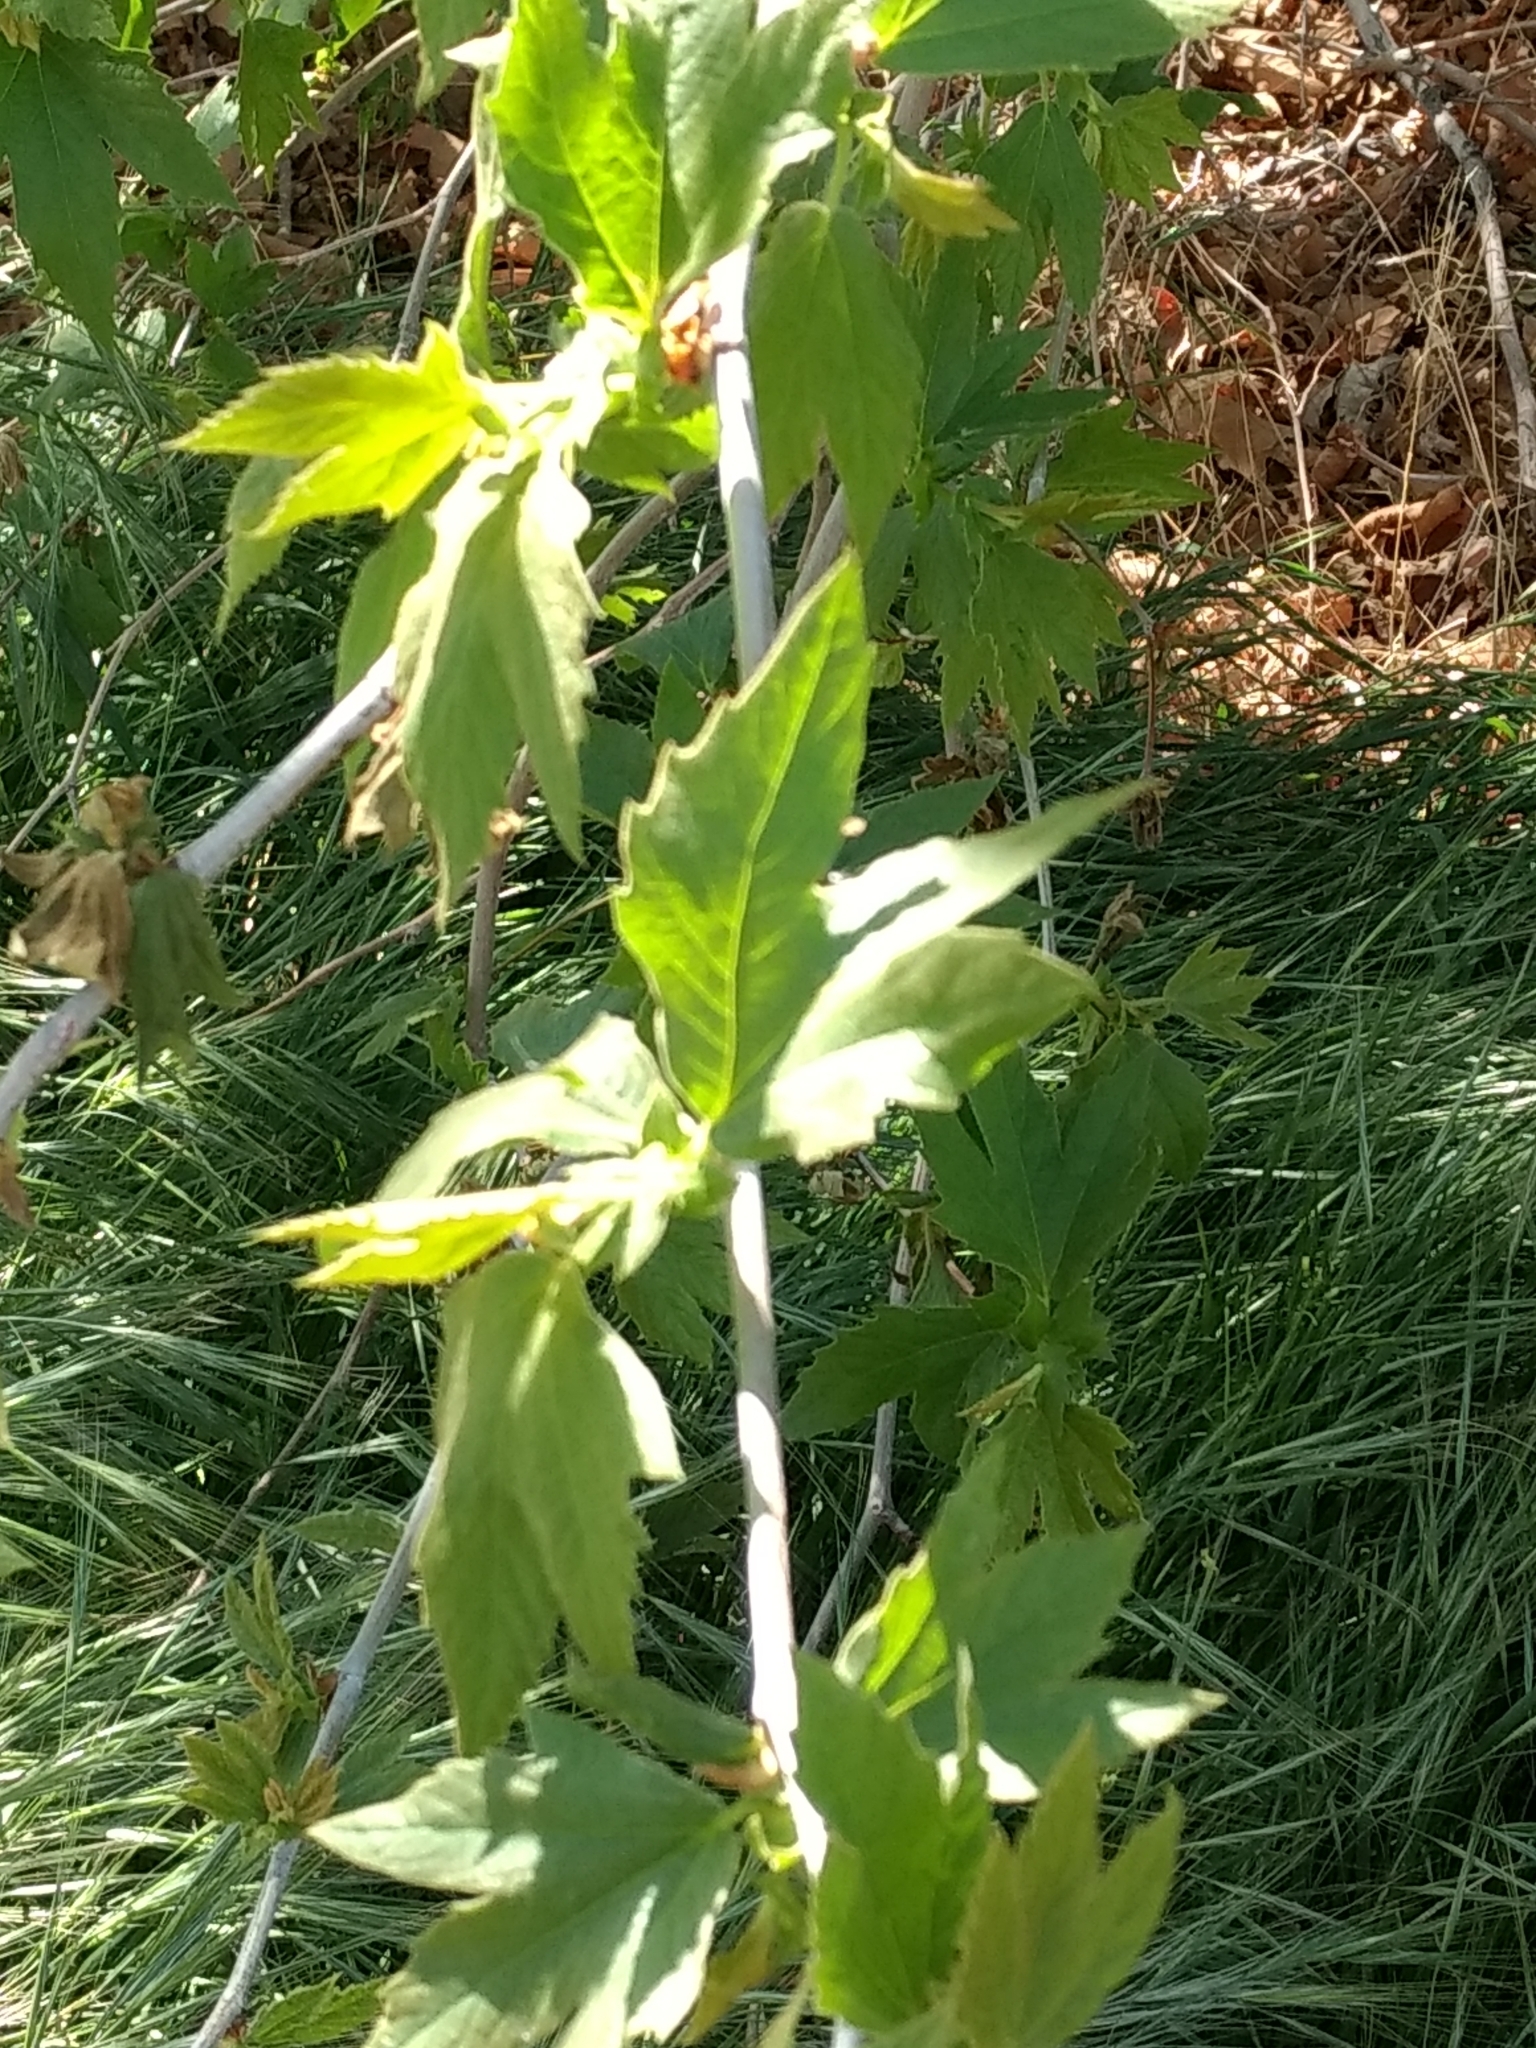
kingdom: Plantae
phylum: Tracheophyta
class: Magnoliopsida
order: Proteales
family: Platanaceae
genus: Platanus
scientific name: Platanus racemosa
